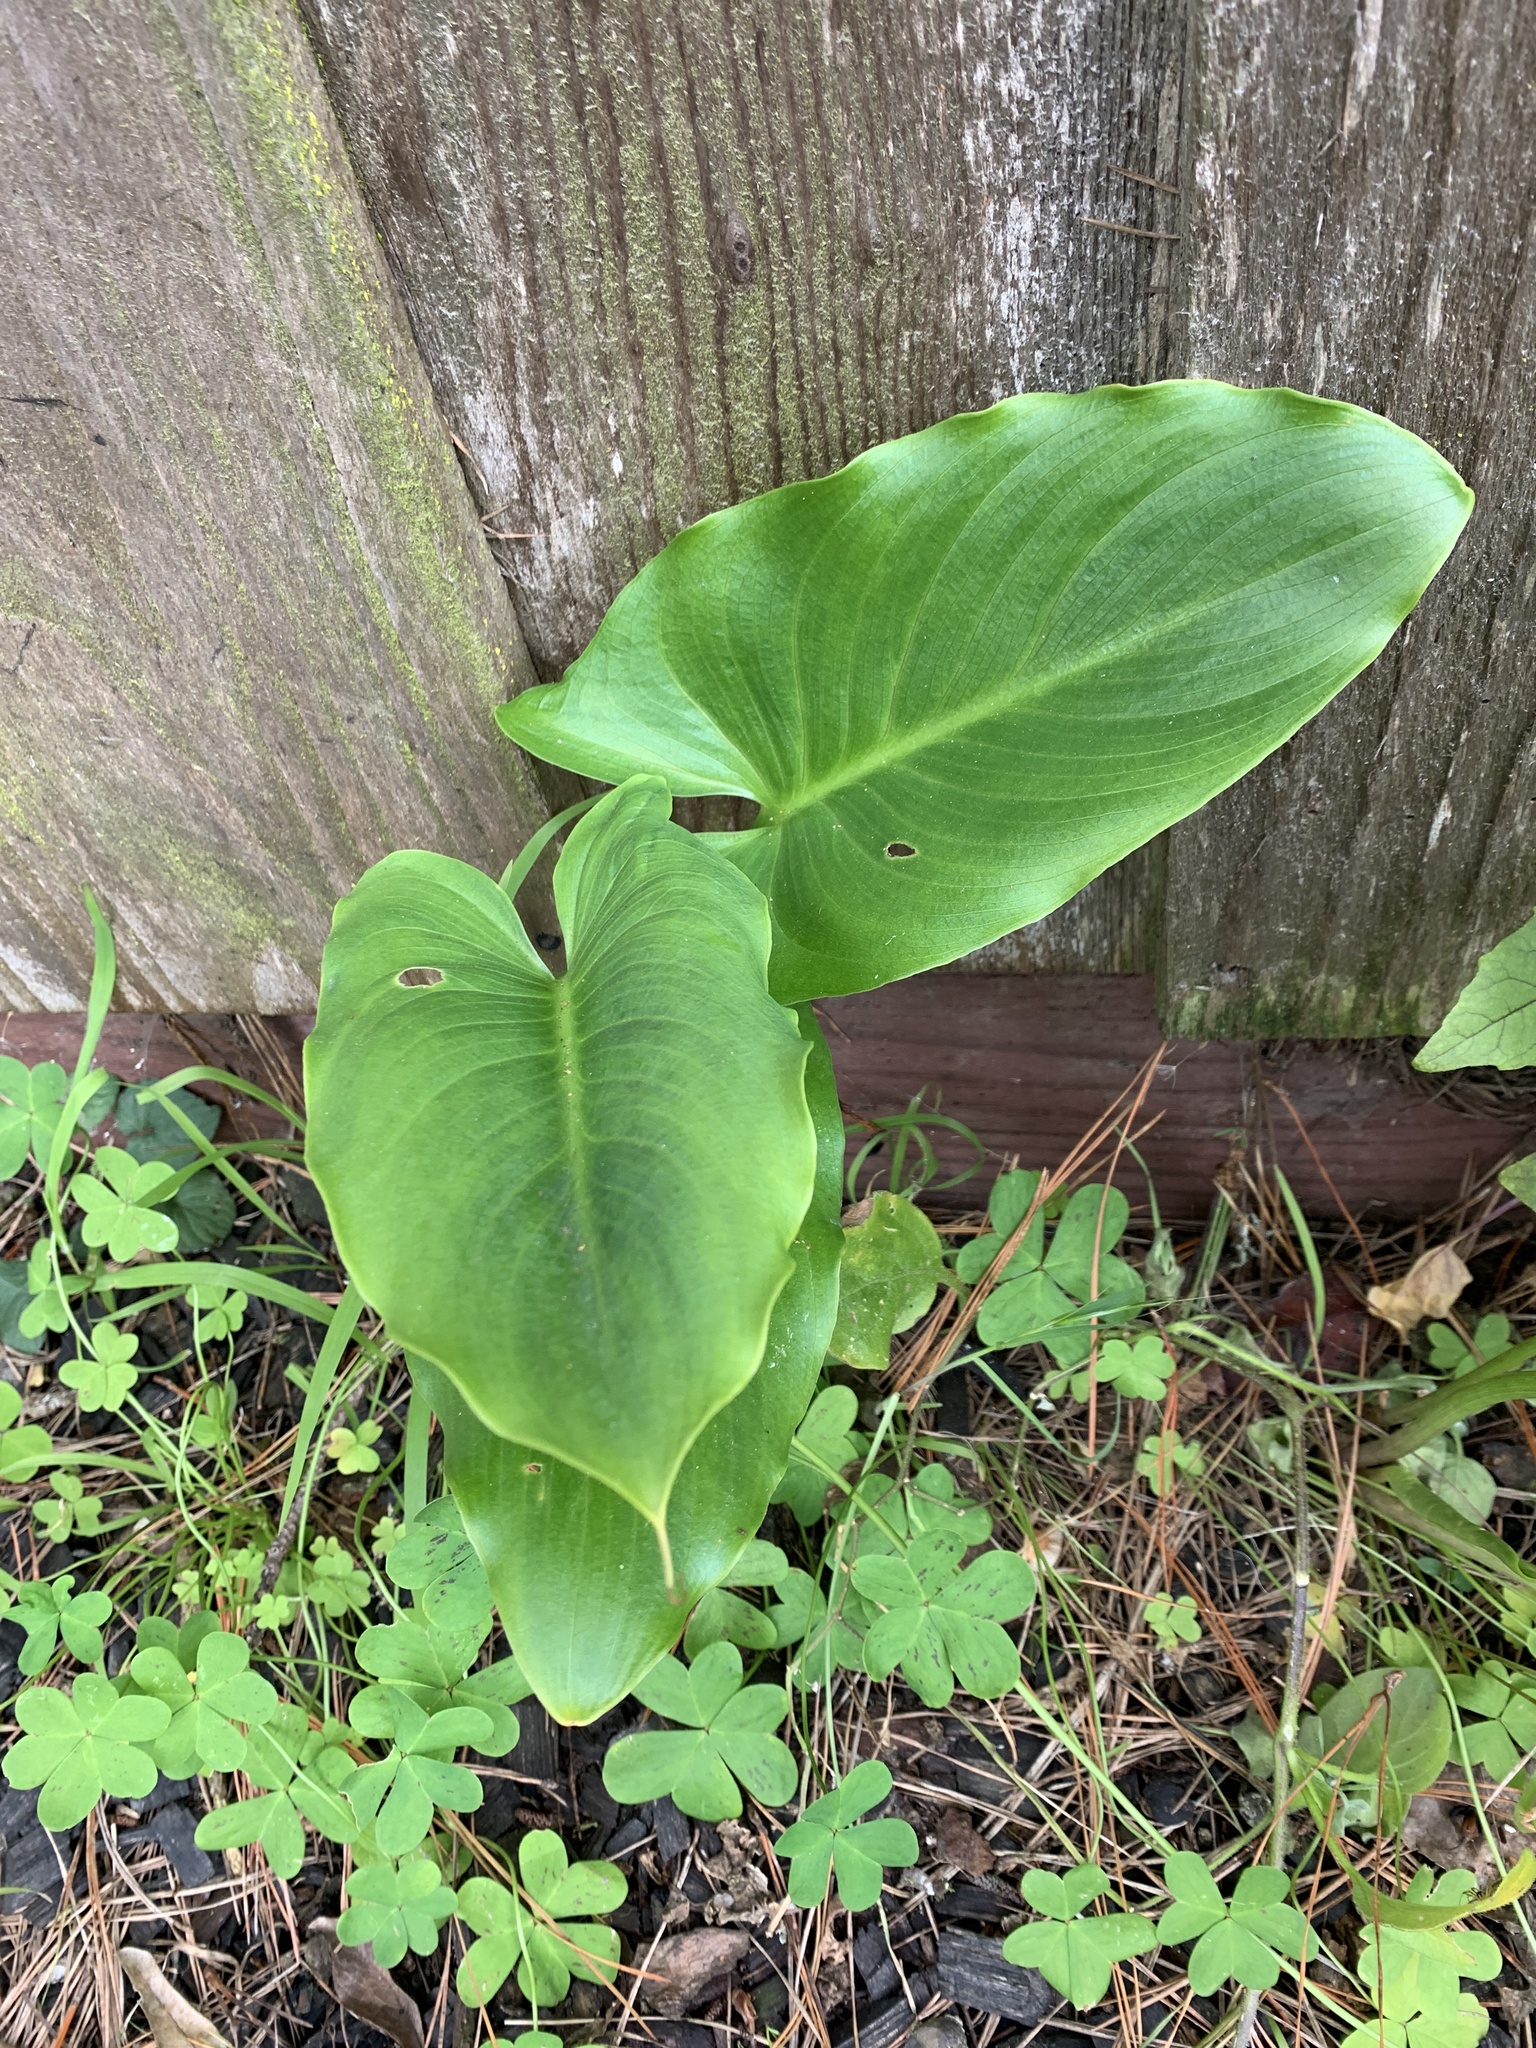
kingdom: Plantae
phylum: Tracheophyta
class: Liliopsida
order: Alismatales
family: Araceae
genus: Zantedeschia
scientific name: Zantedeschia aethiopica
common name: Altar-lily
